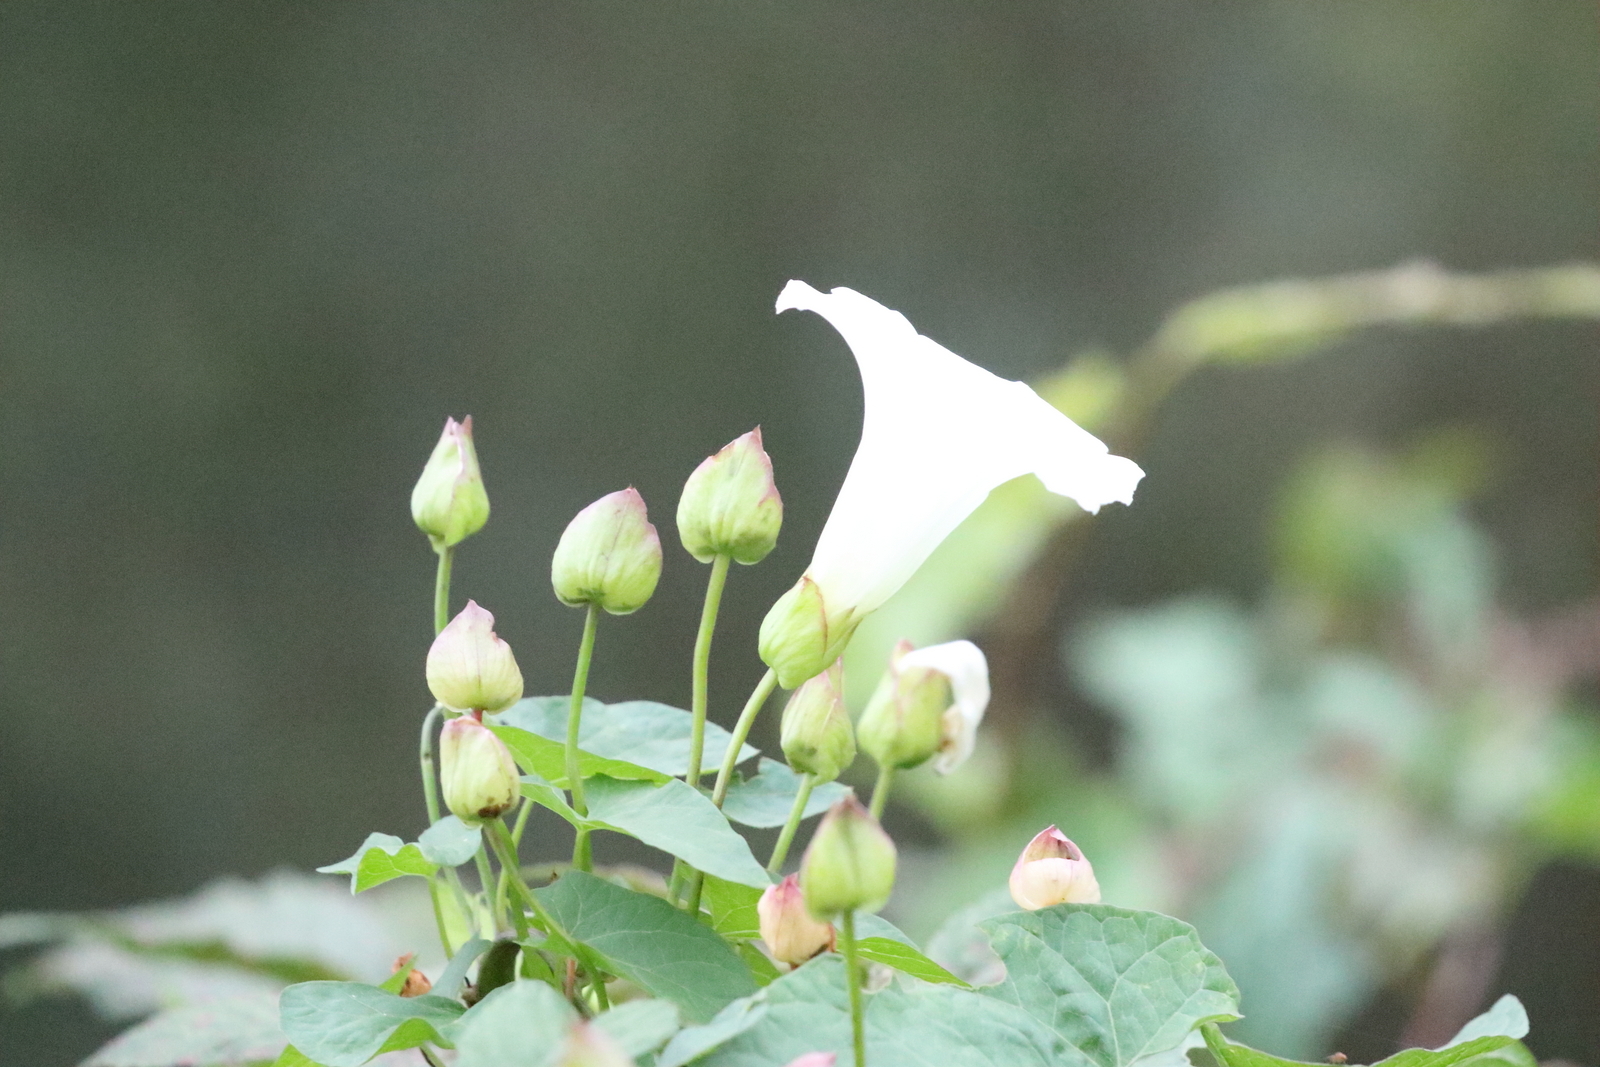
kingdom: Plantae
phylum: Tracheophyta
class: Magnoliopsida
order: Solanales
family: Convolvulaceae
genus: Calystegia
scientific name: Calystegia lucana
